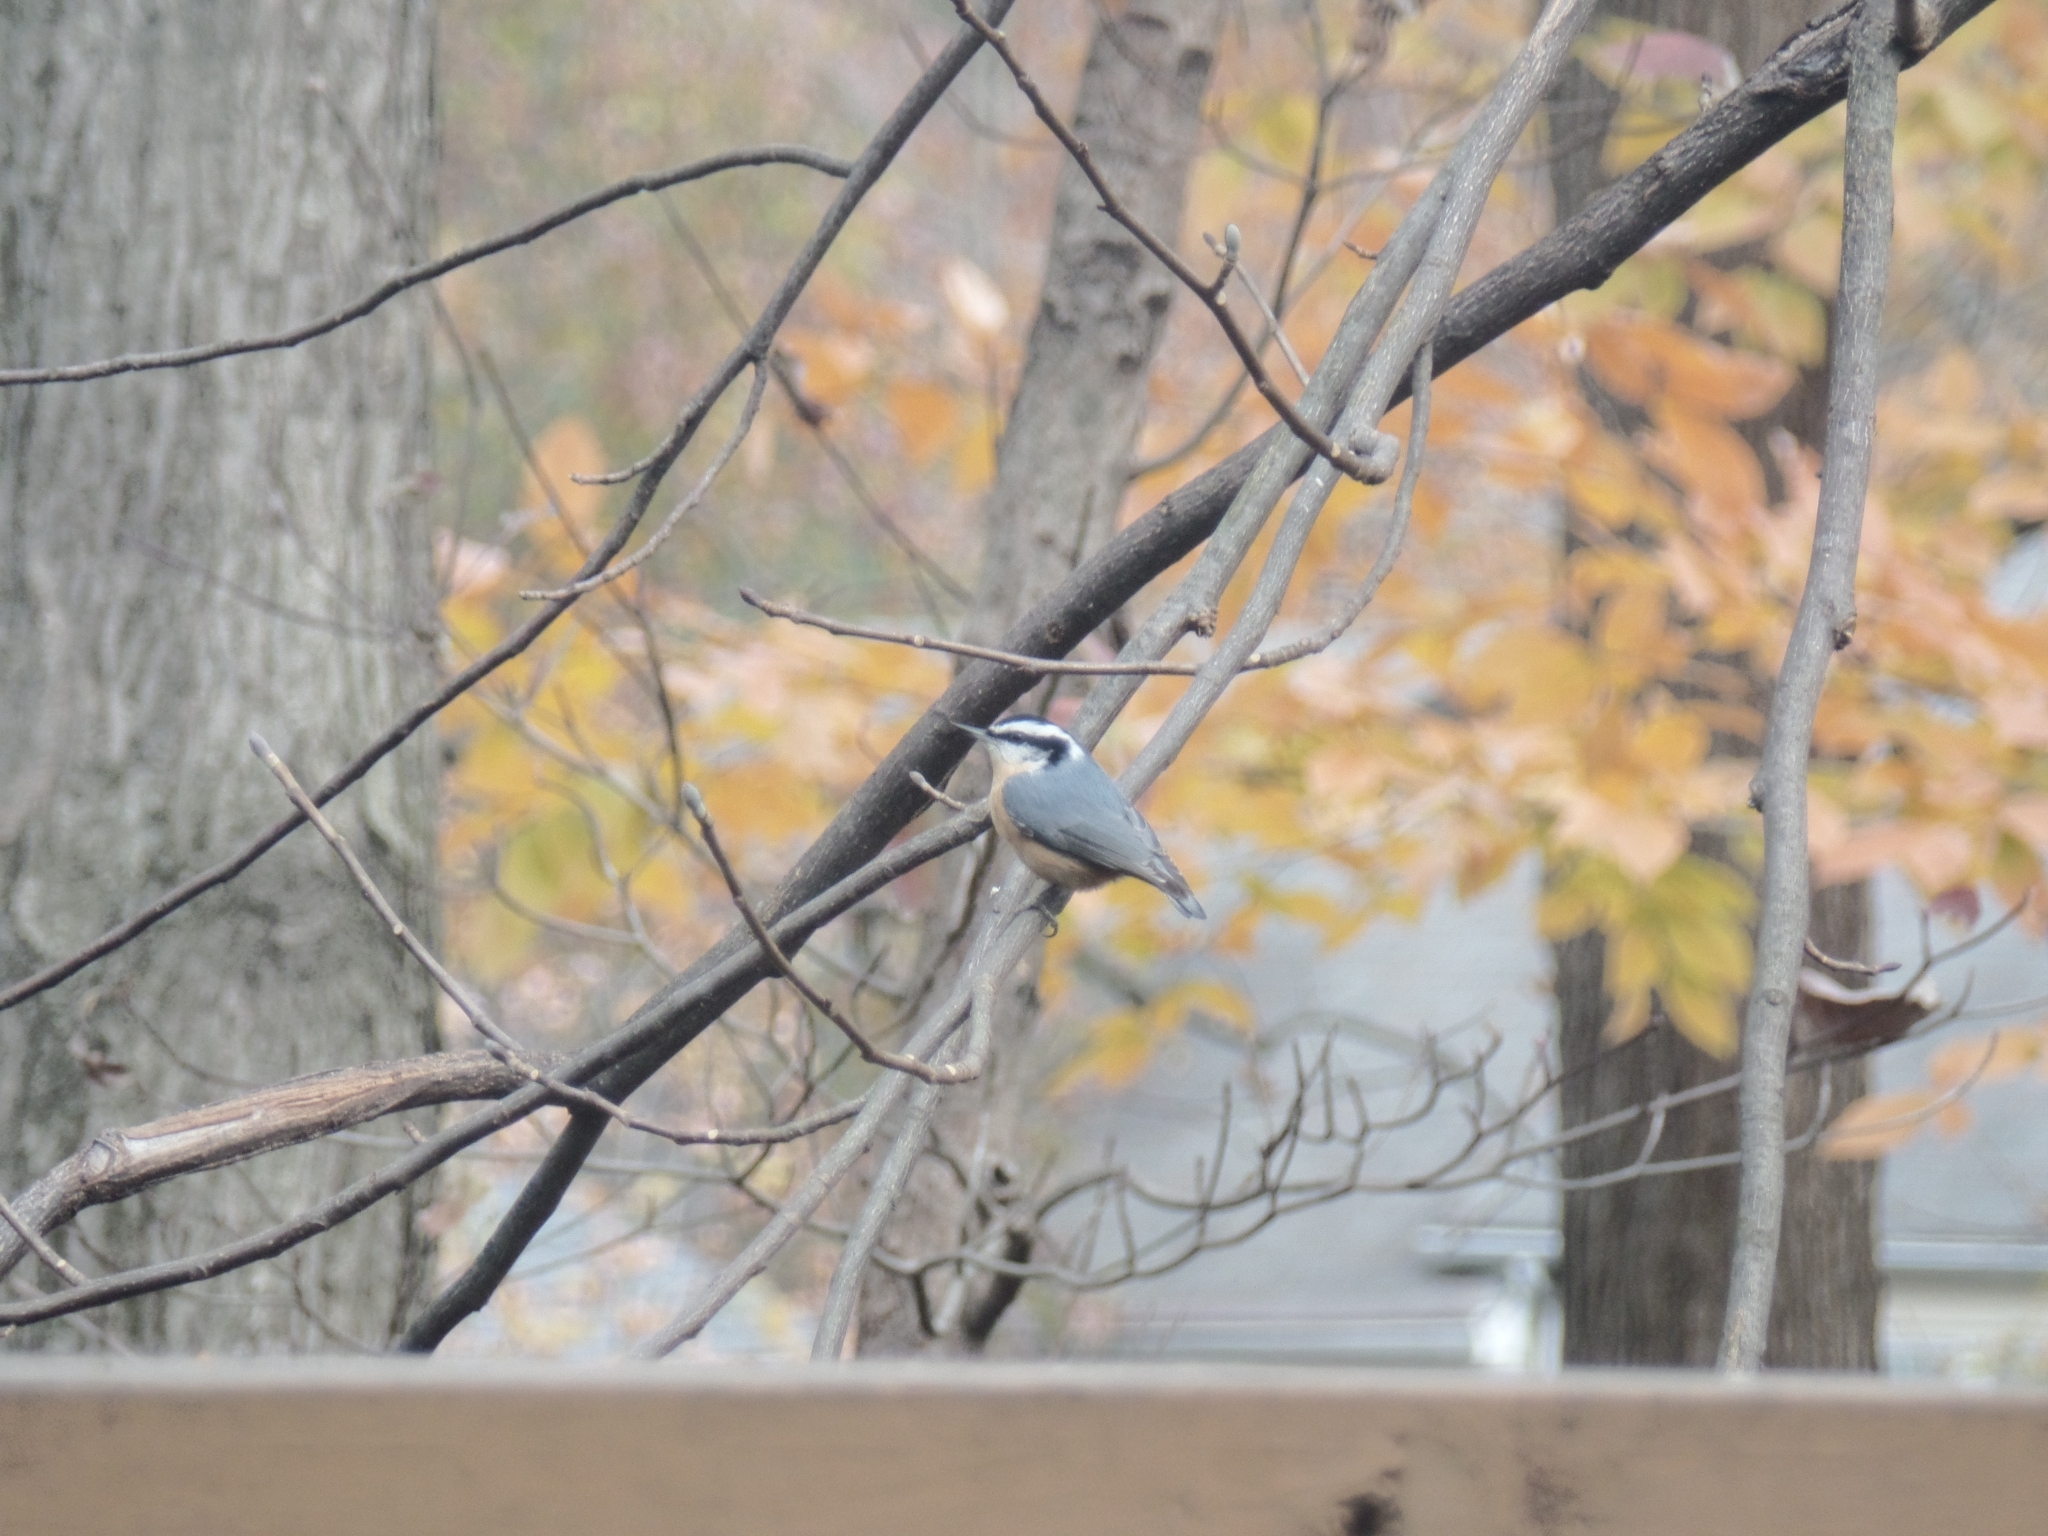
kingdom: Animalia
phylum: Chordata
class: Aves
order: Passeriformes
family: Sittidae
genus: Sitta
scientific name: Sitta canadensis
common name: Red-breasted nuthatch
